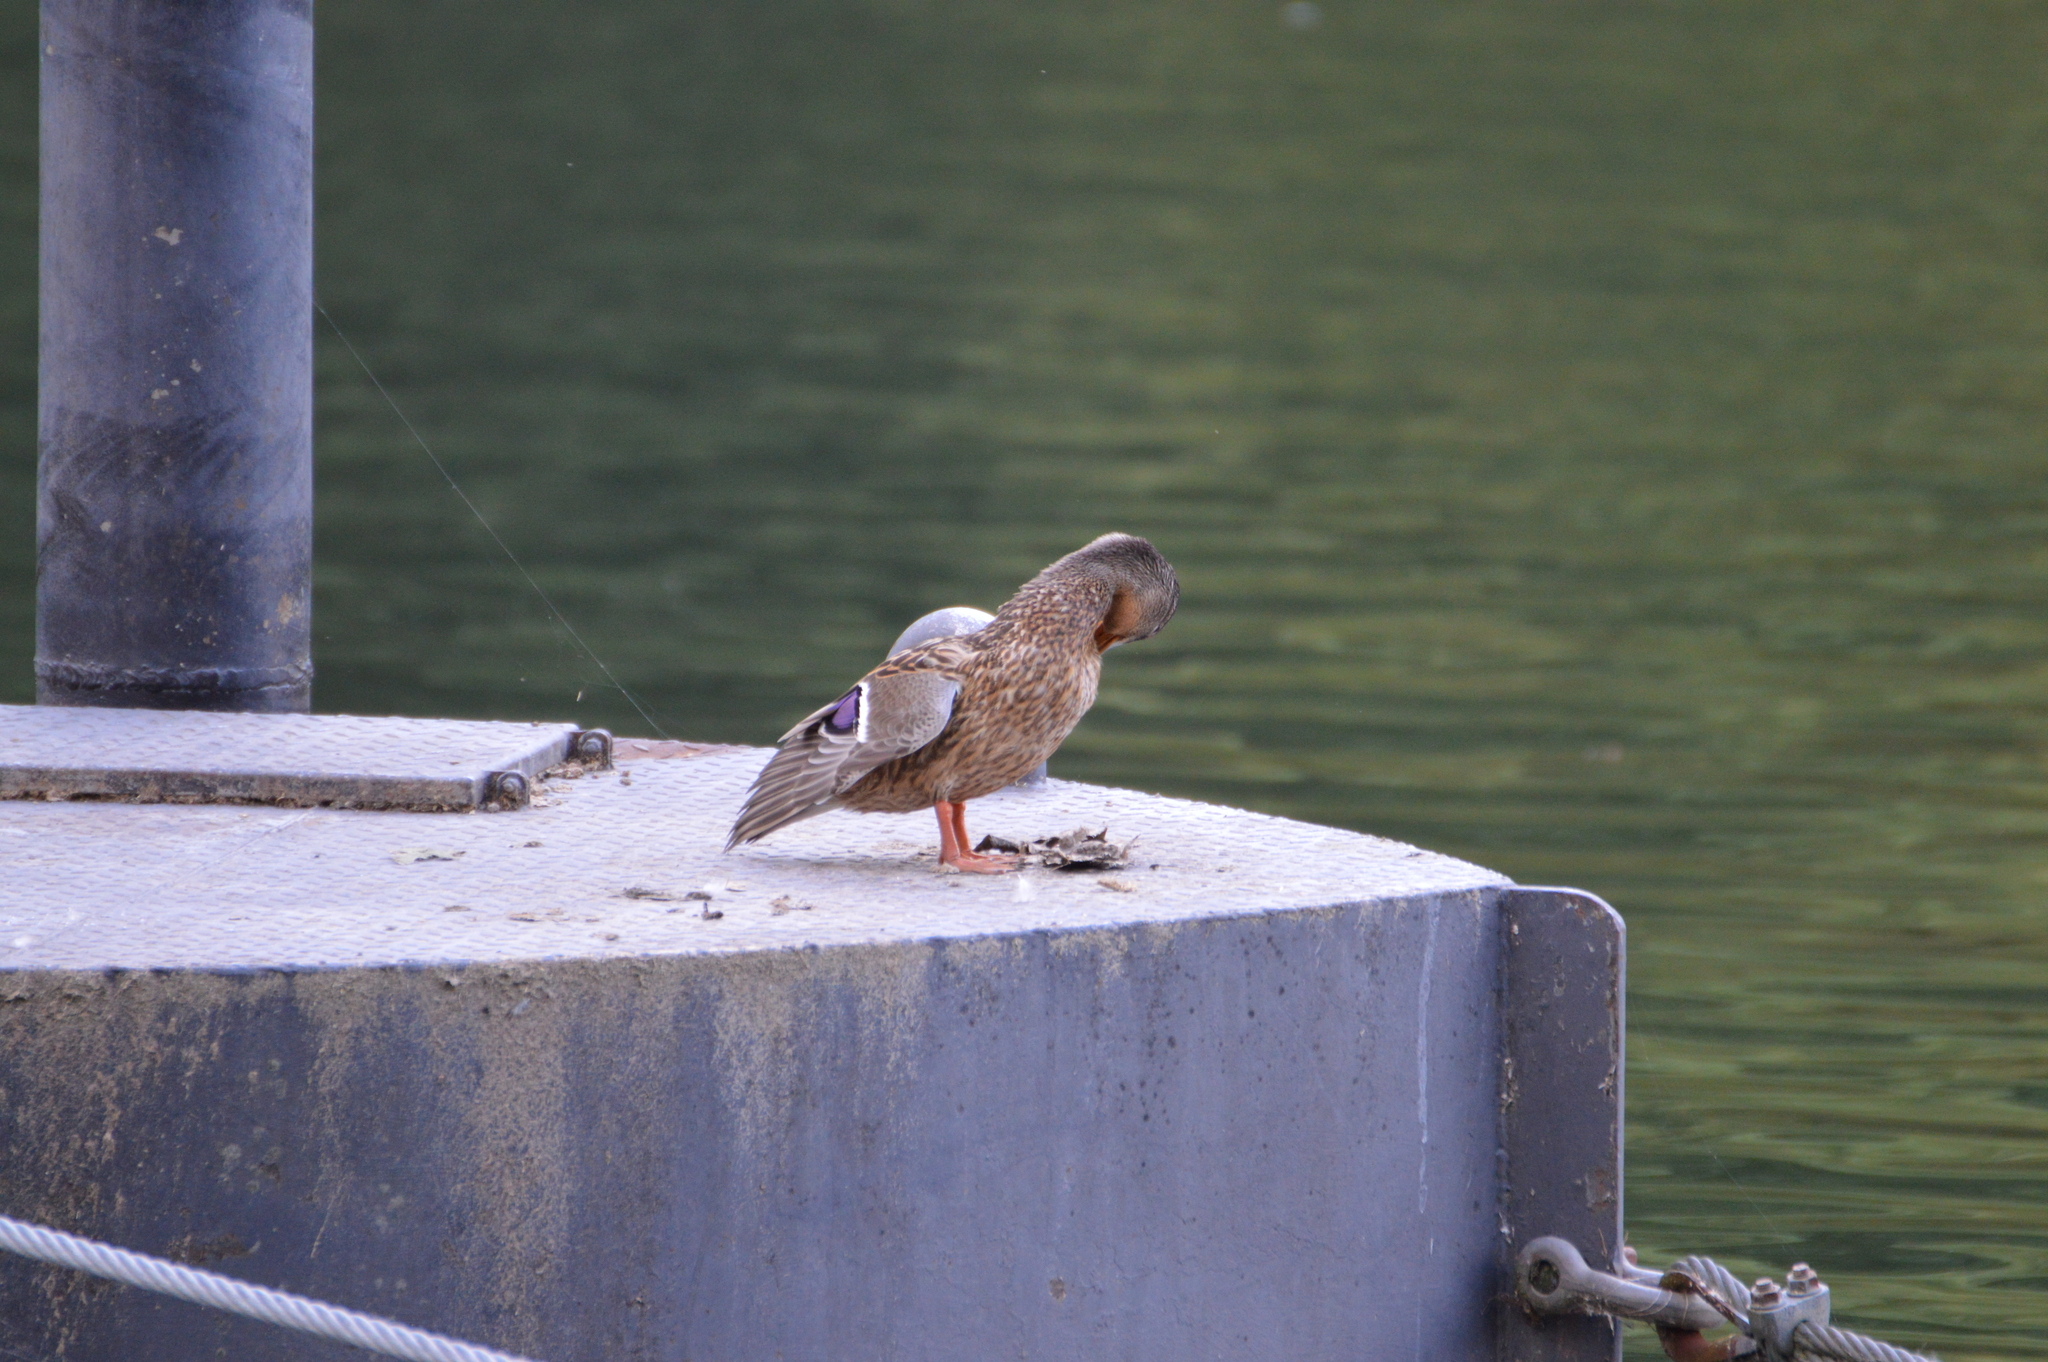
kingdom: Animalia
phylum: Chordata
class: Aves
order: Anseriformes
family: Anatidae
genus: Anas
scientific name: Anas platyrhynchos
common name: Mallard
